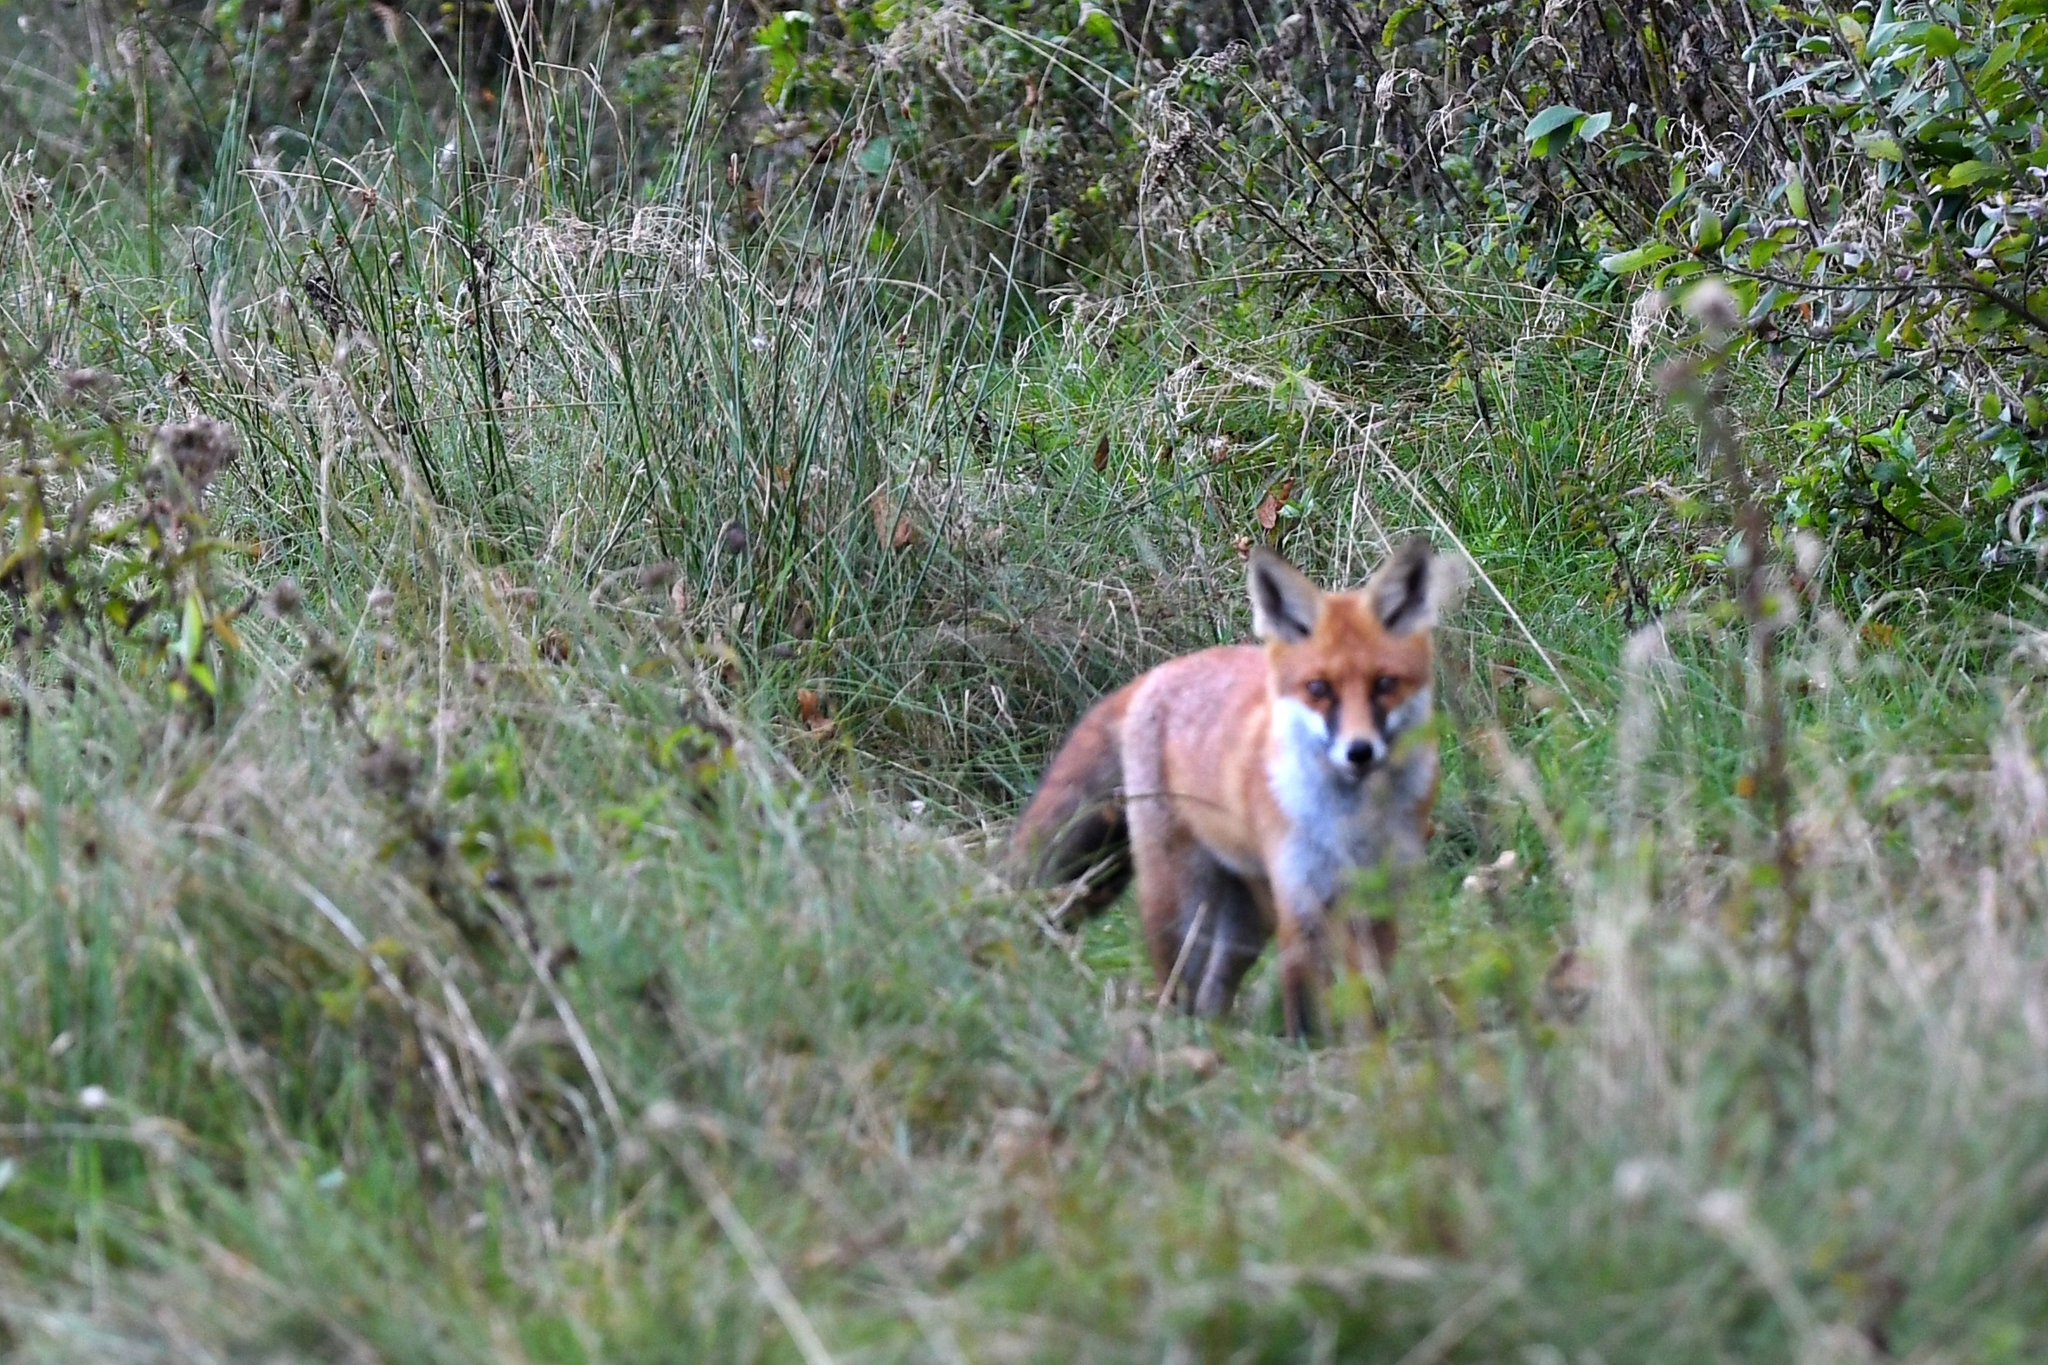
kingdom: Animalia
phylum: Chordata
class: Mammalia
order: Carnivora
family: Canidae
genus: Vulpes
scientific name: Vulpes vulpes
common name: Red fox
